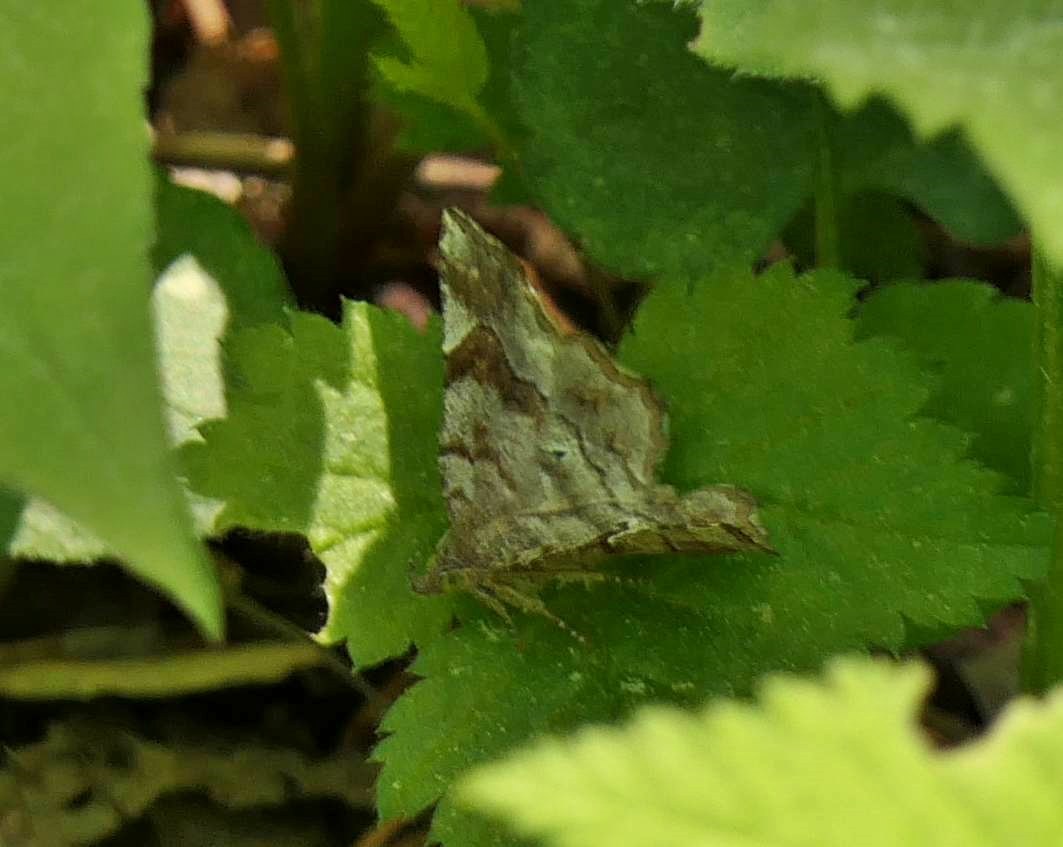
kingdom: Animalia
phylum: Arthropoda
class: Insecta
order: Lepidoptera
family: Erebidae
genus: Pangrapta
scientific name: Pangrapta decoralis
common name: Decorated owlet
